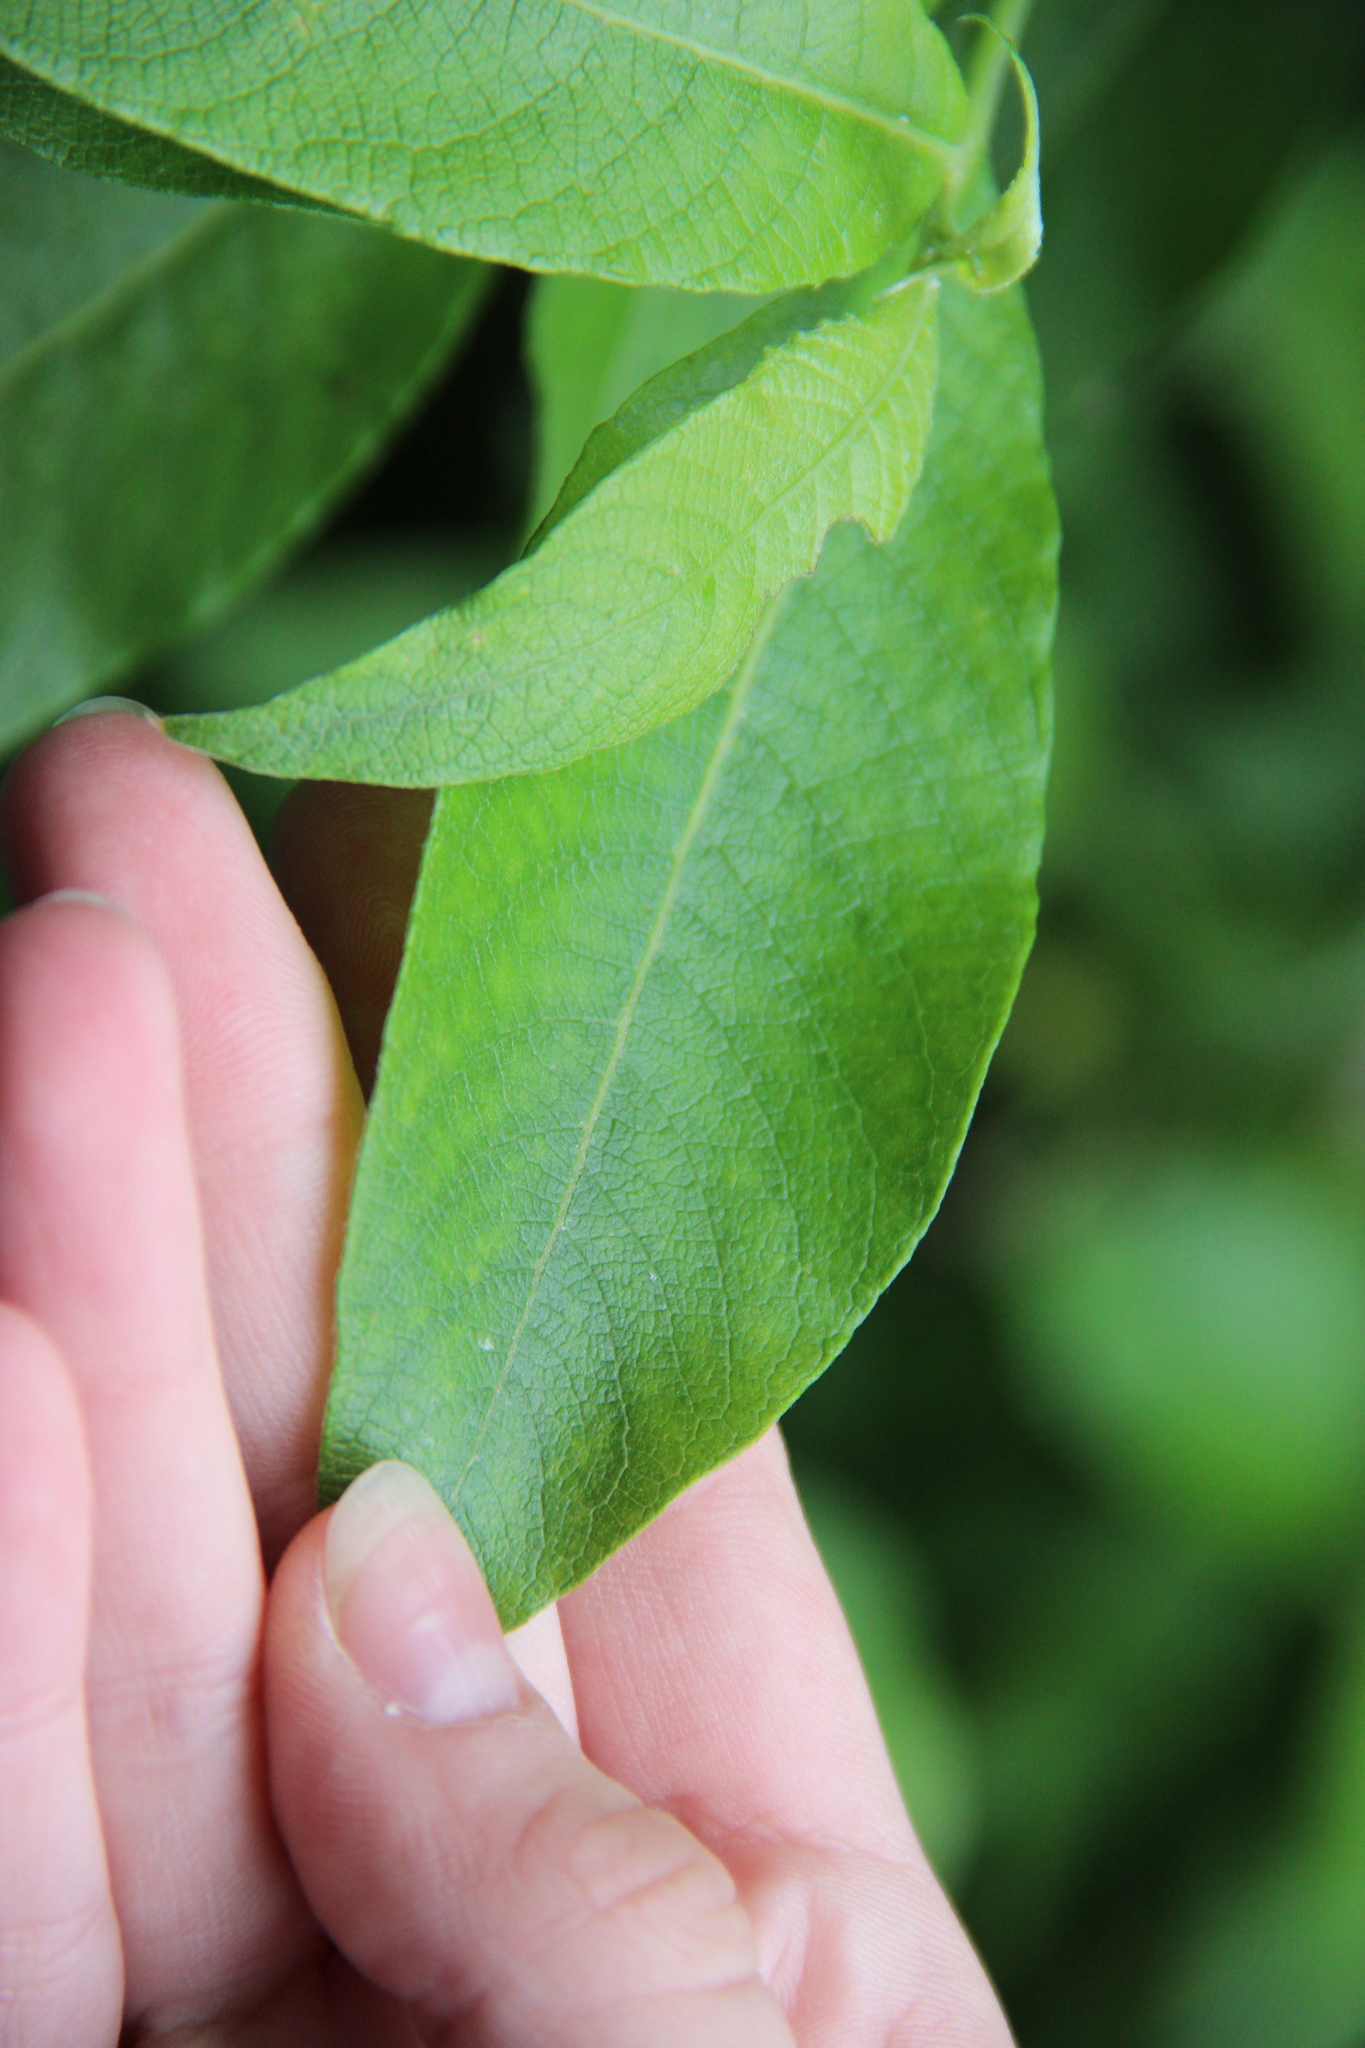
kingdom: Plantae
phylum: Tracheophyta
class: Magnoliopsida
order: Malpighiales
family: Salicaceae
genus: Salix
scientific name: Salix caprea
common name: Goat willow
